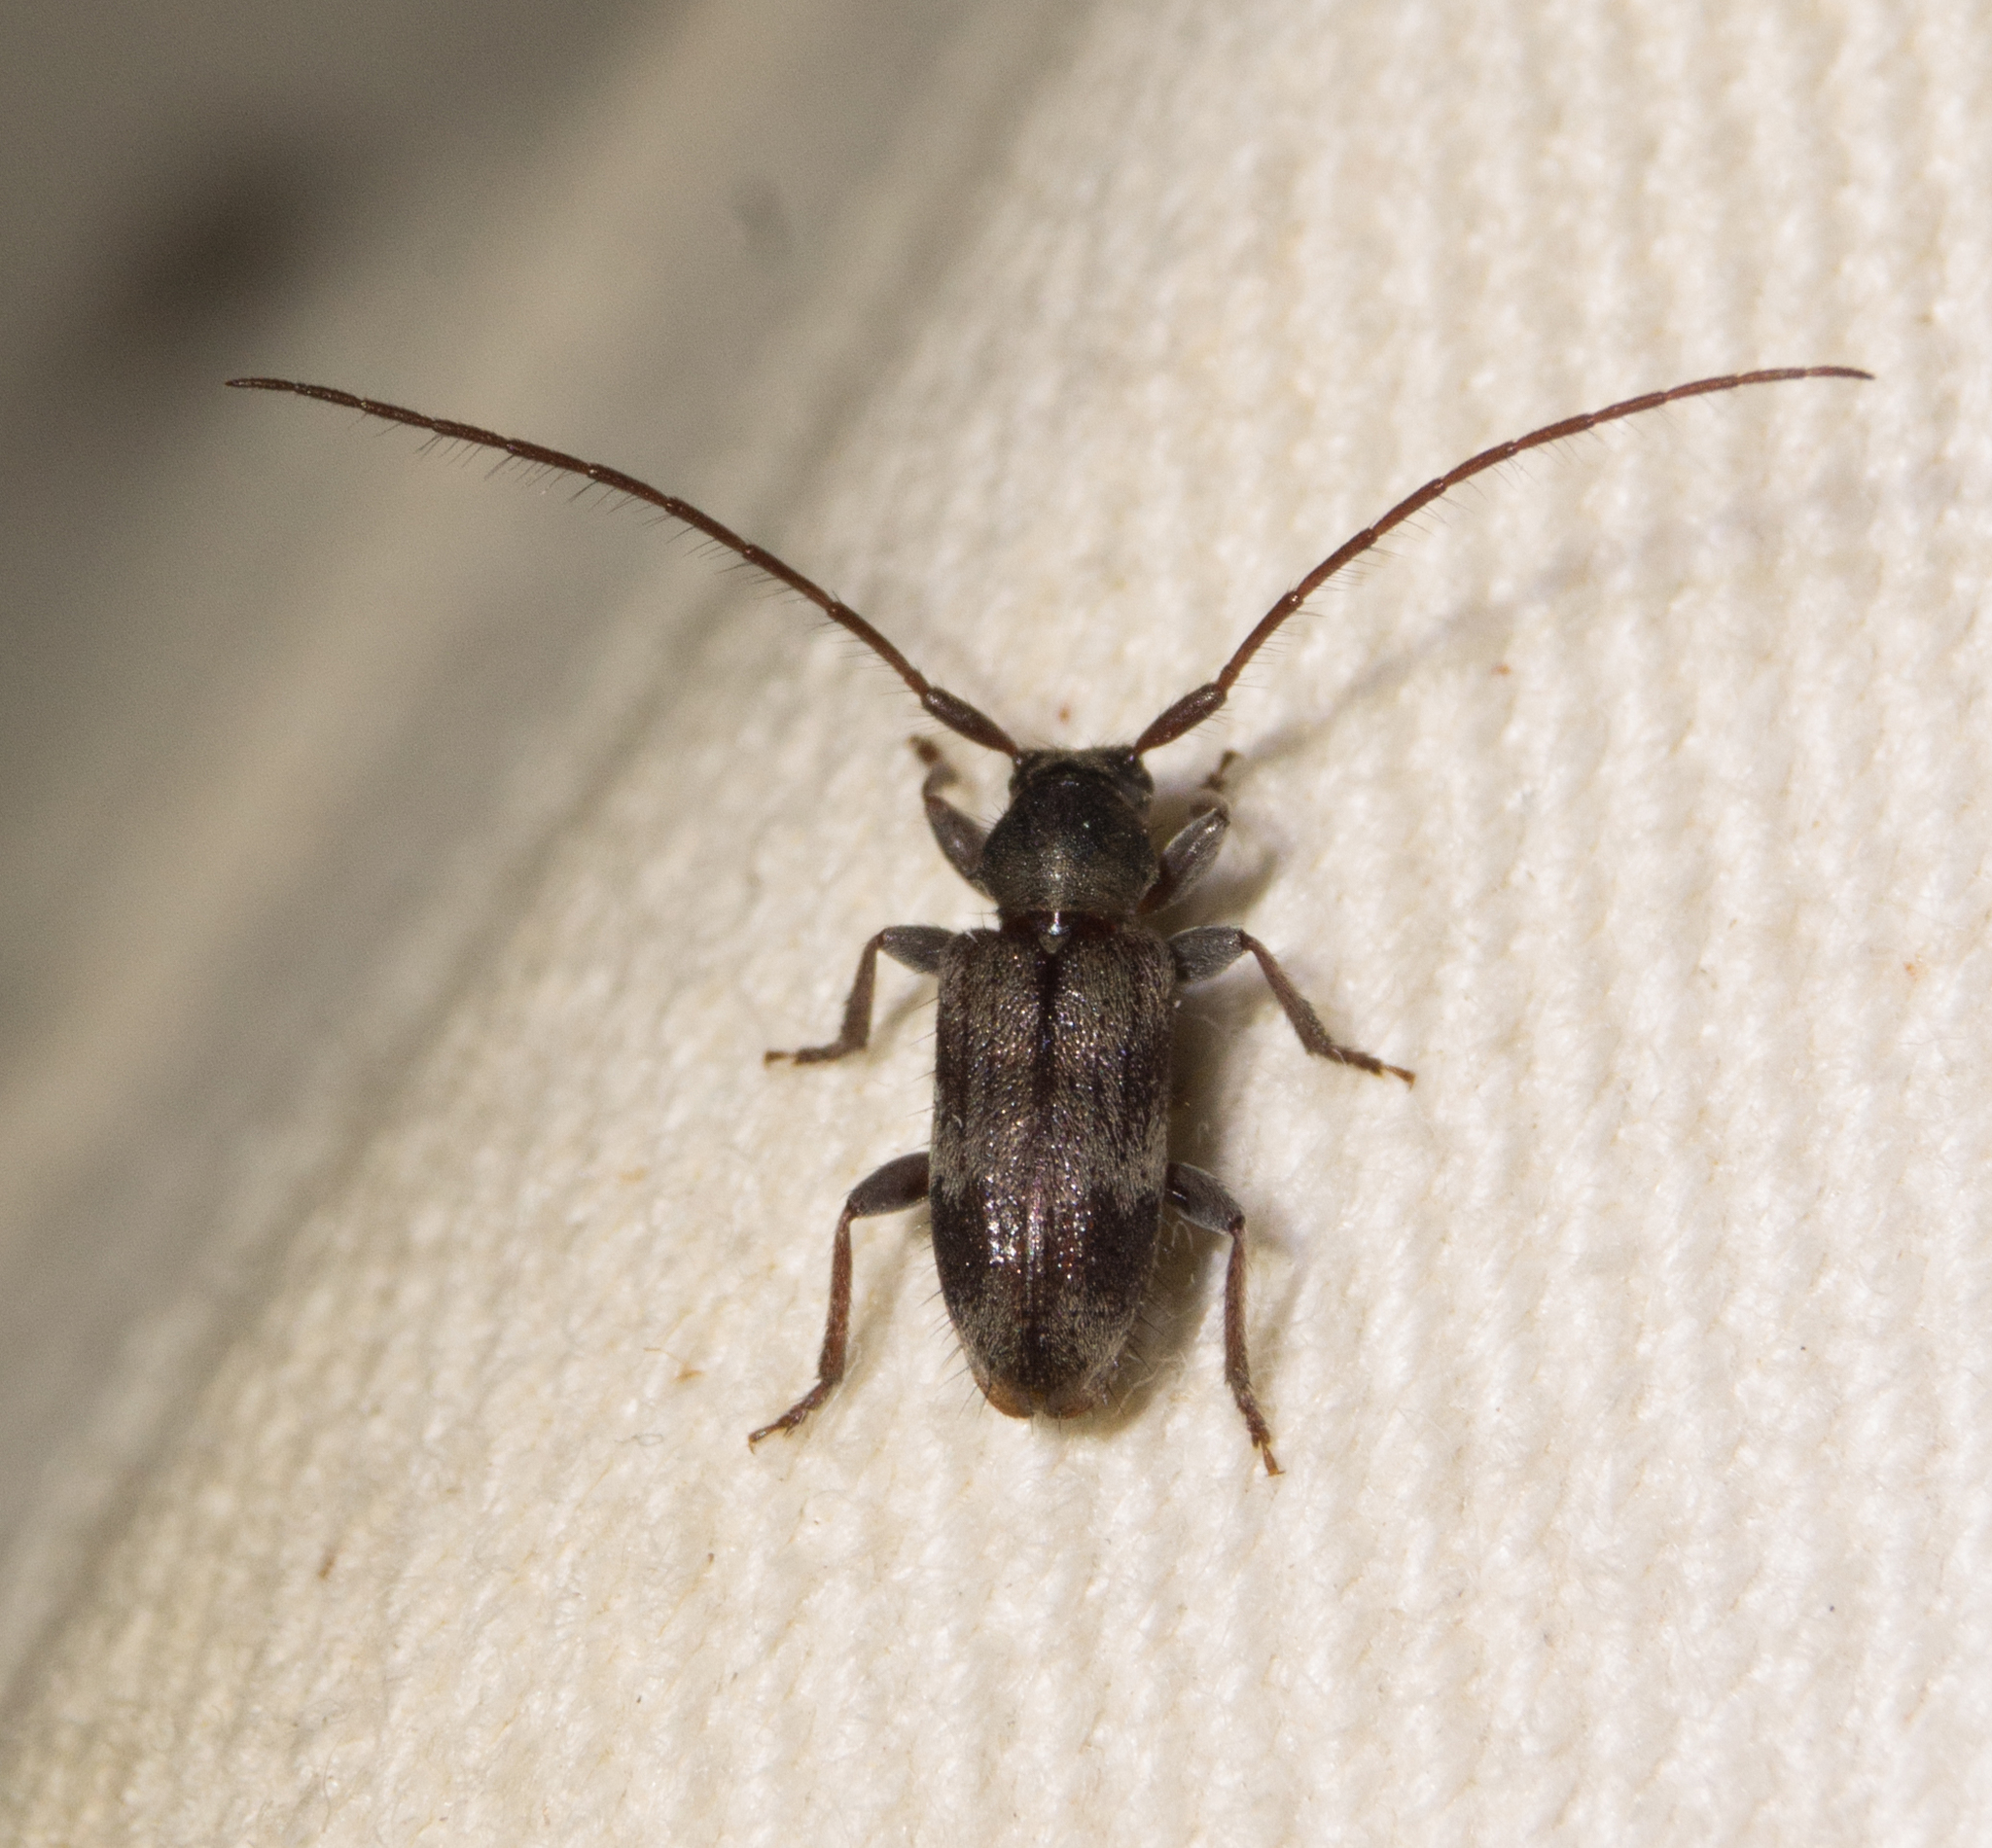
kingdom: Animalia
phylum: Arthropoda
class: Insecta
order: Coleoptera
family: Cerambycidae
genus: Exocentrus
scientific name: Exocentrus lusitanus
